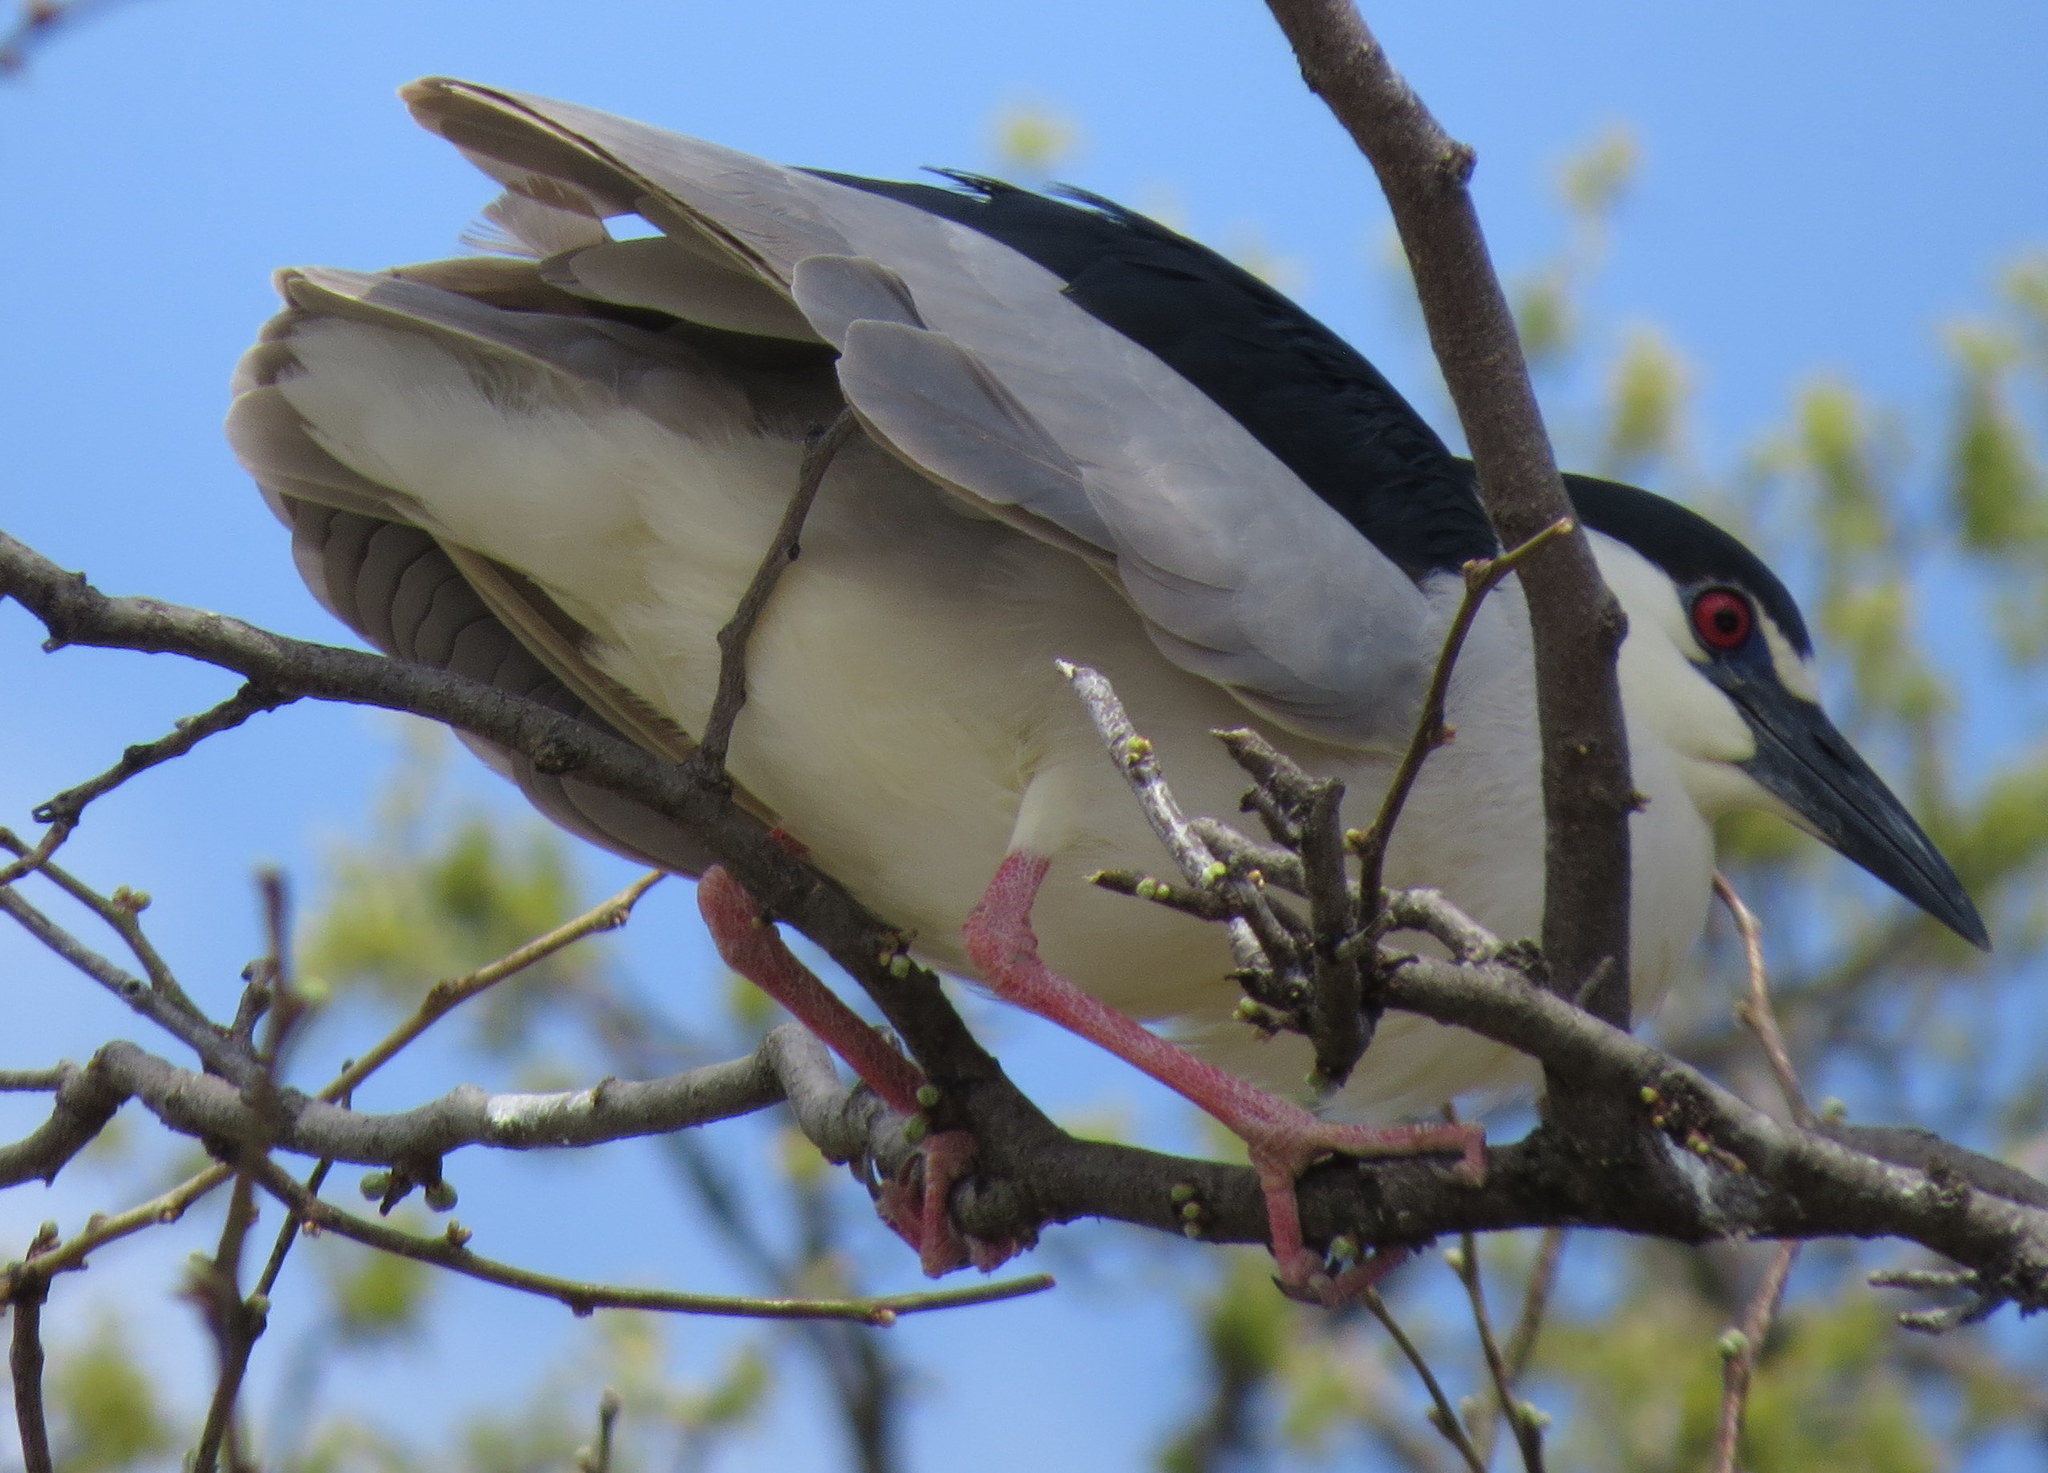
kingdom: Animalia
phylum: Chordata
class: Aves
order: Pelecaniformes
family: Ardeidae
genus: Nycticorax
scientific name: Nycticorax nycticorax
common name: Black-crowned night heron
